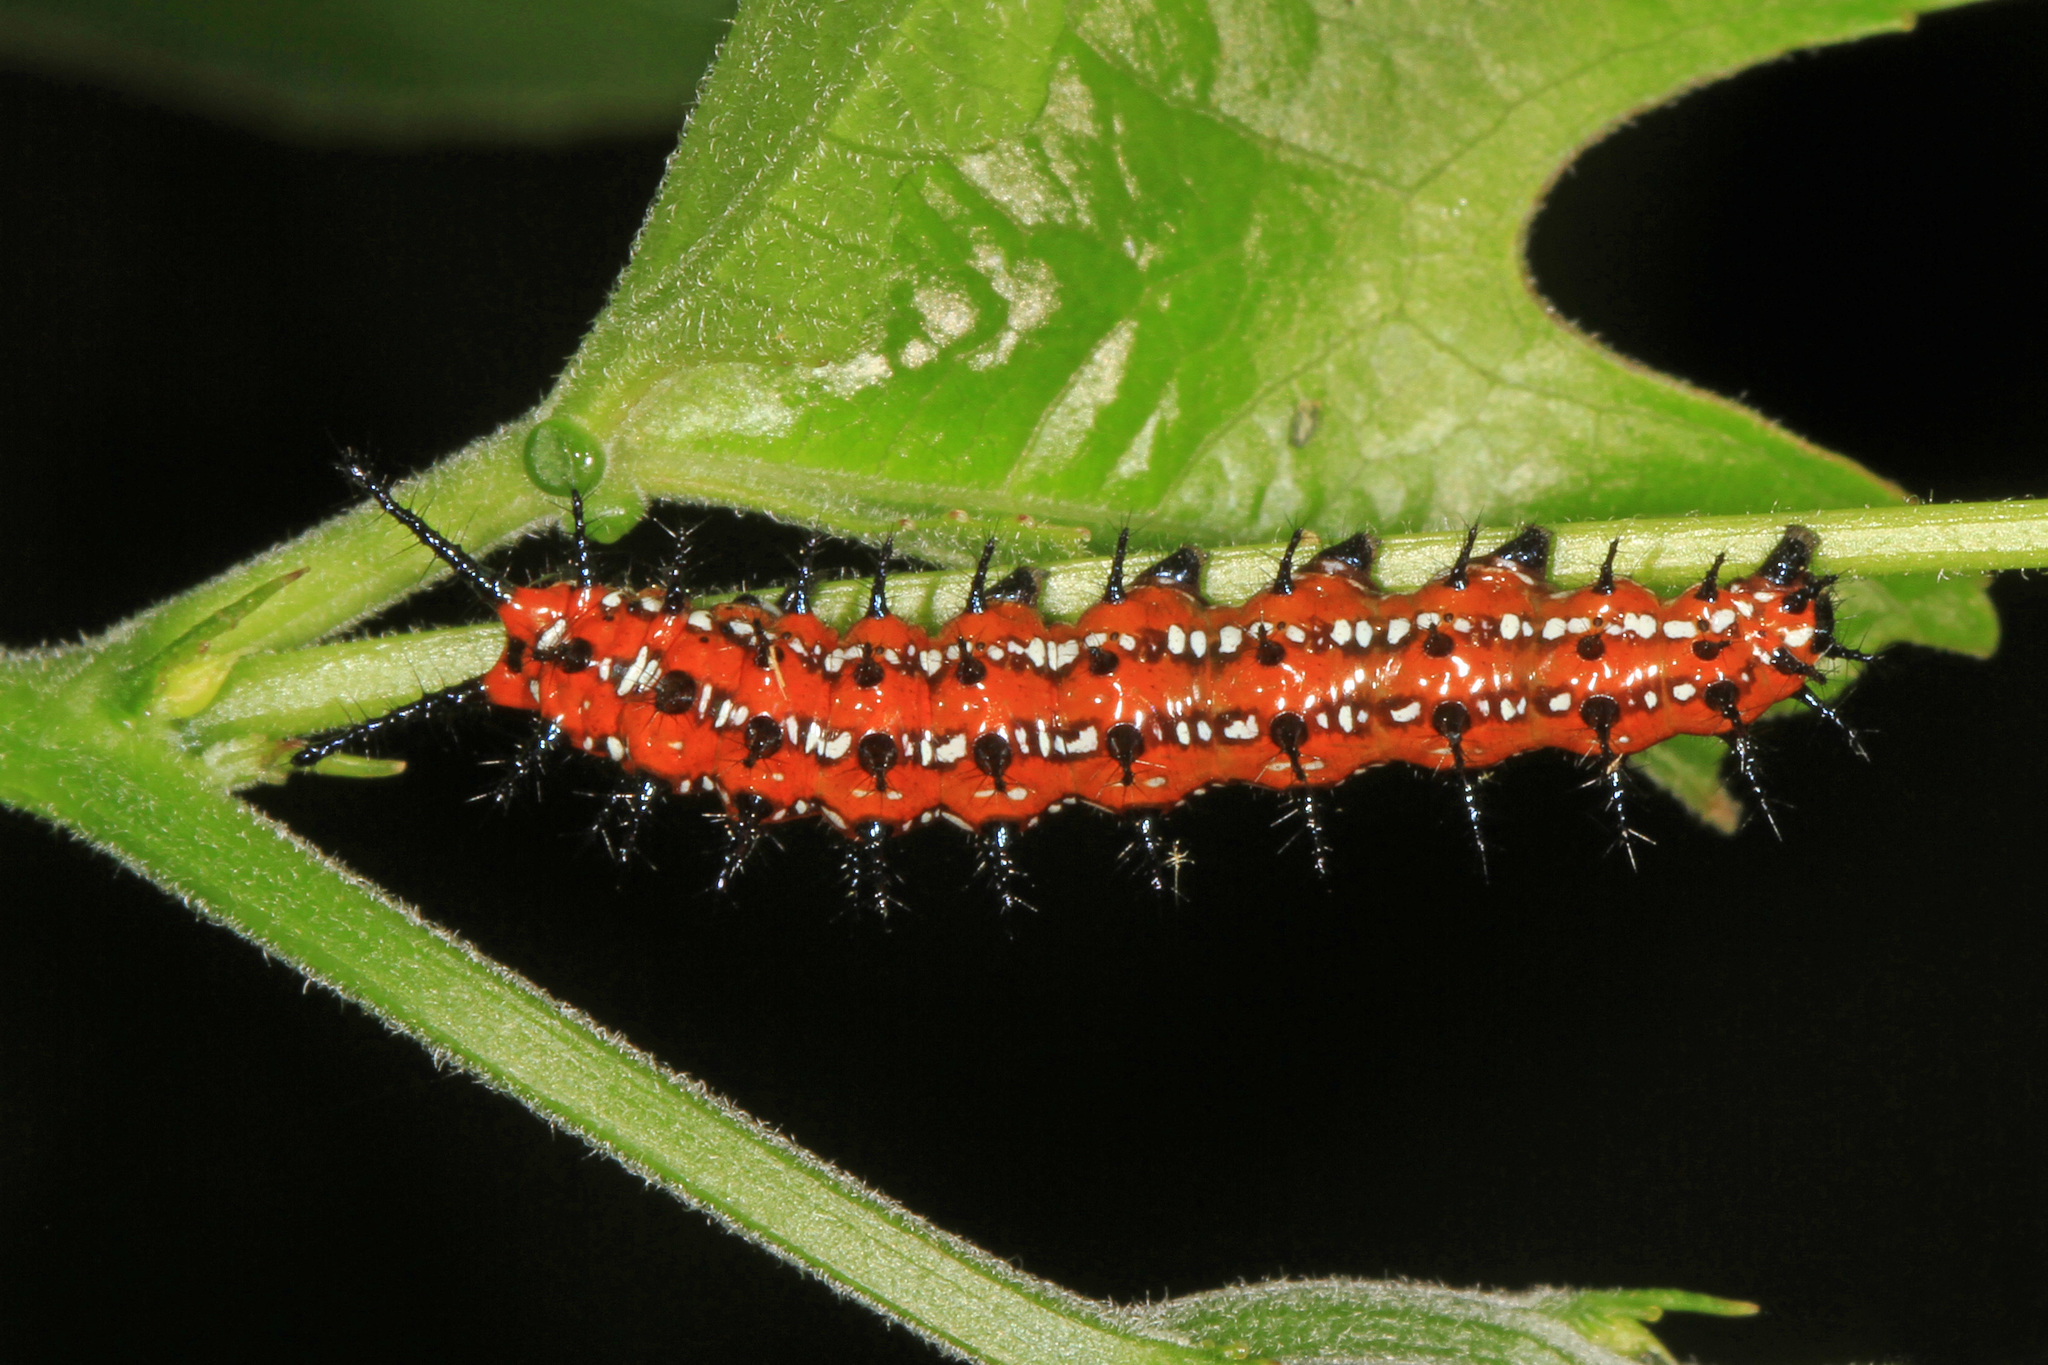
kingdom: Animalia
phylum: Arthropoda
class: Insecta
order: Lepidoptera
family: Nymphalidae
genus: Euptoieta
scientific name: Euptoieta claudia
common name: Variegated fritillary
